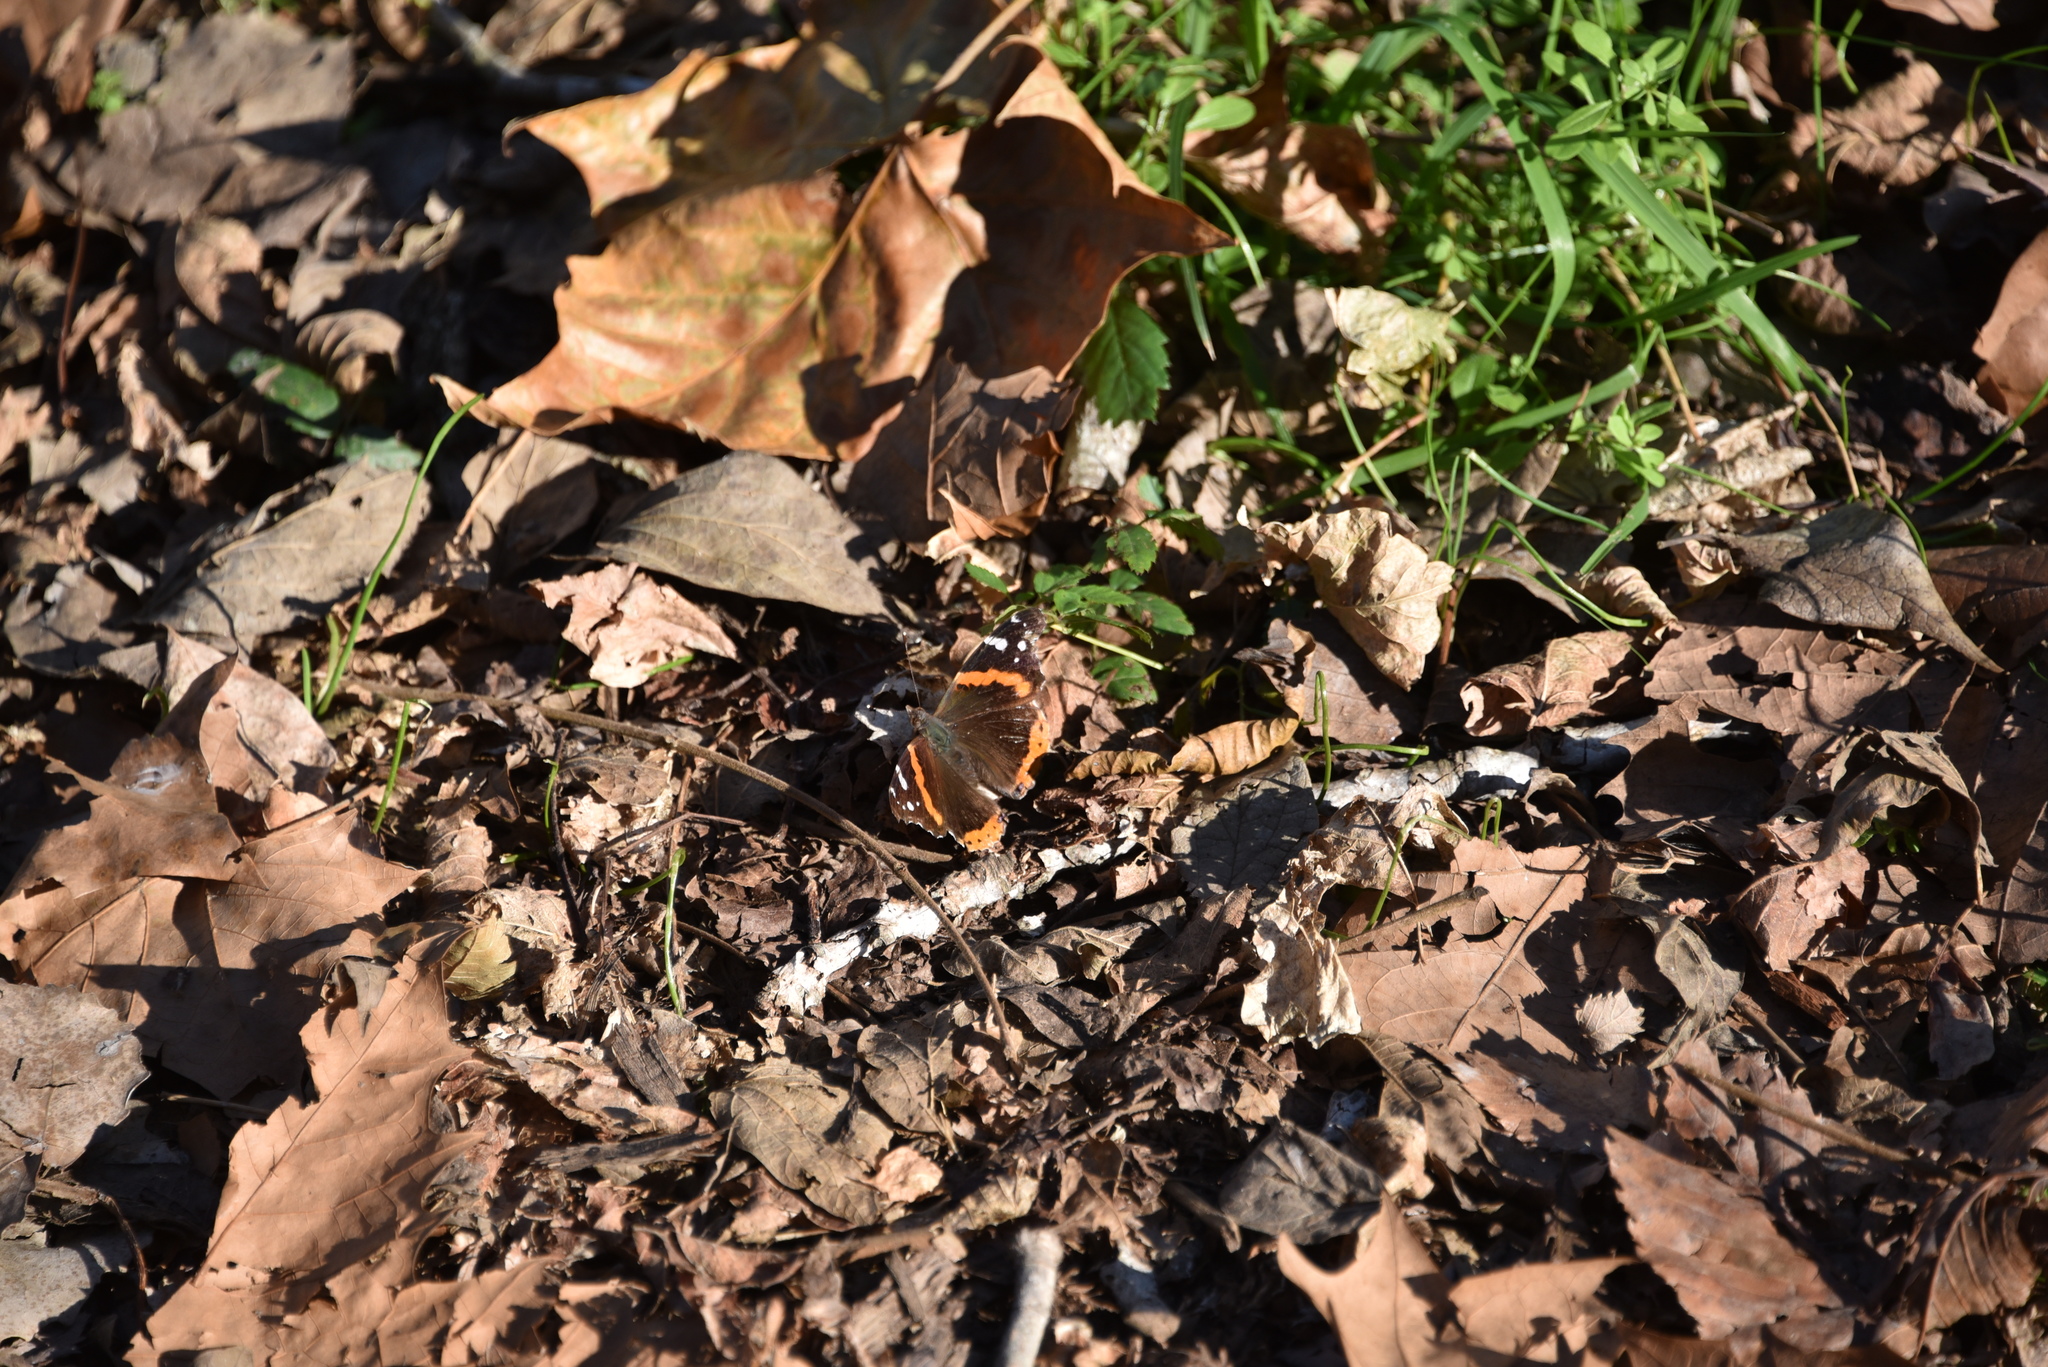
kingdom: Animalia
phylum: Arthropoda
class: Insecta
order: Lepidoptera
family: Nymphalidae
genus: Vanessa
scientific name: Vanessa atalanta
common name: Red admiral
